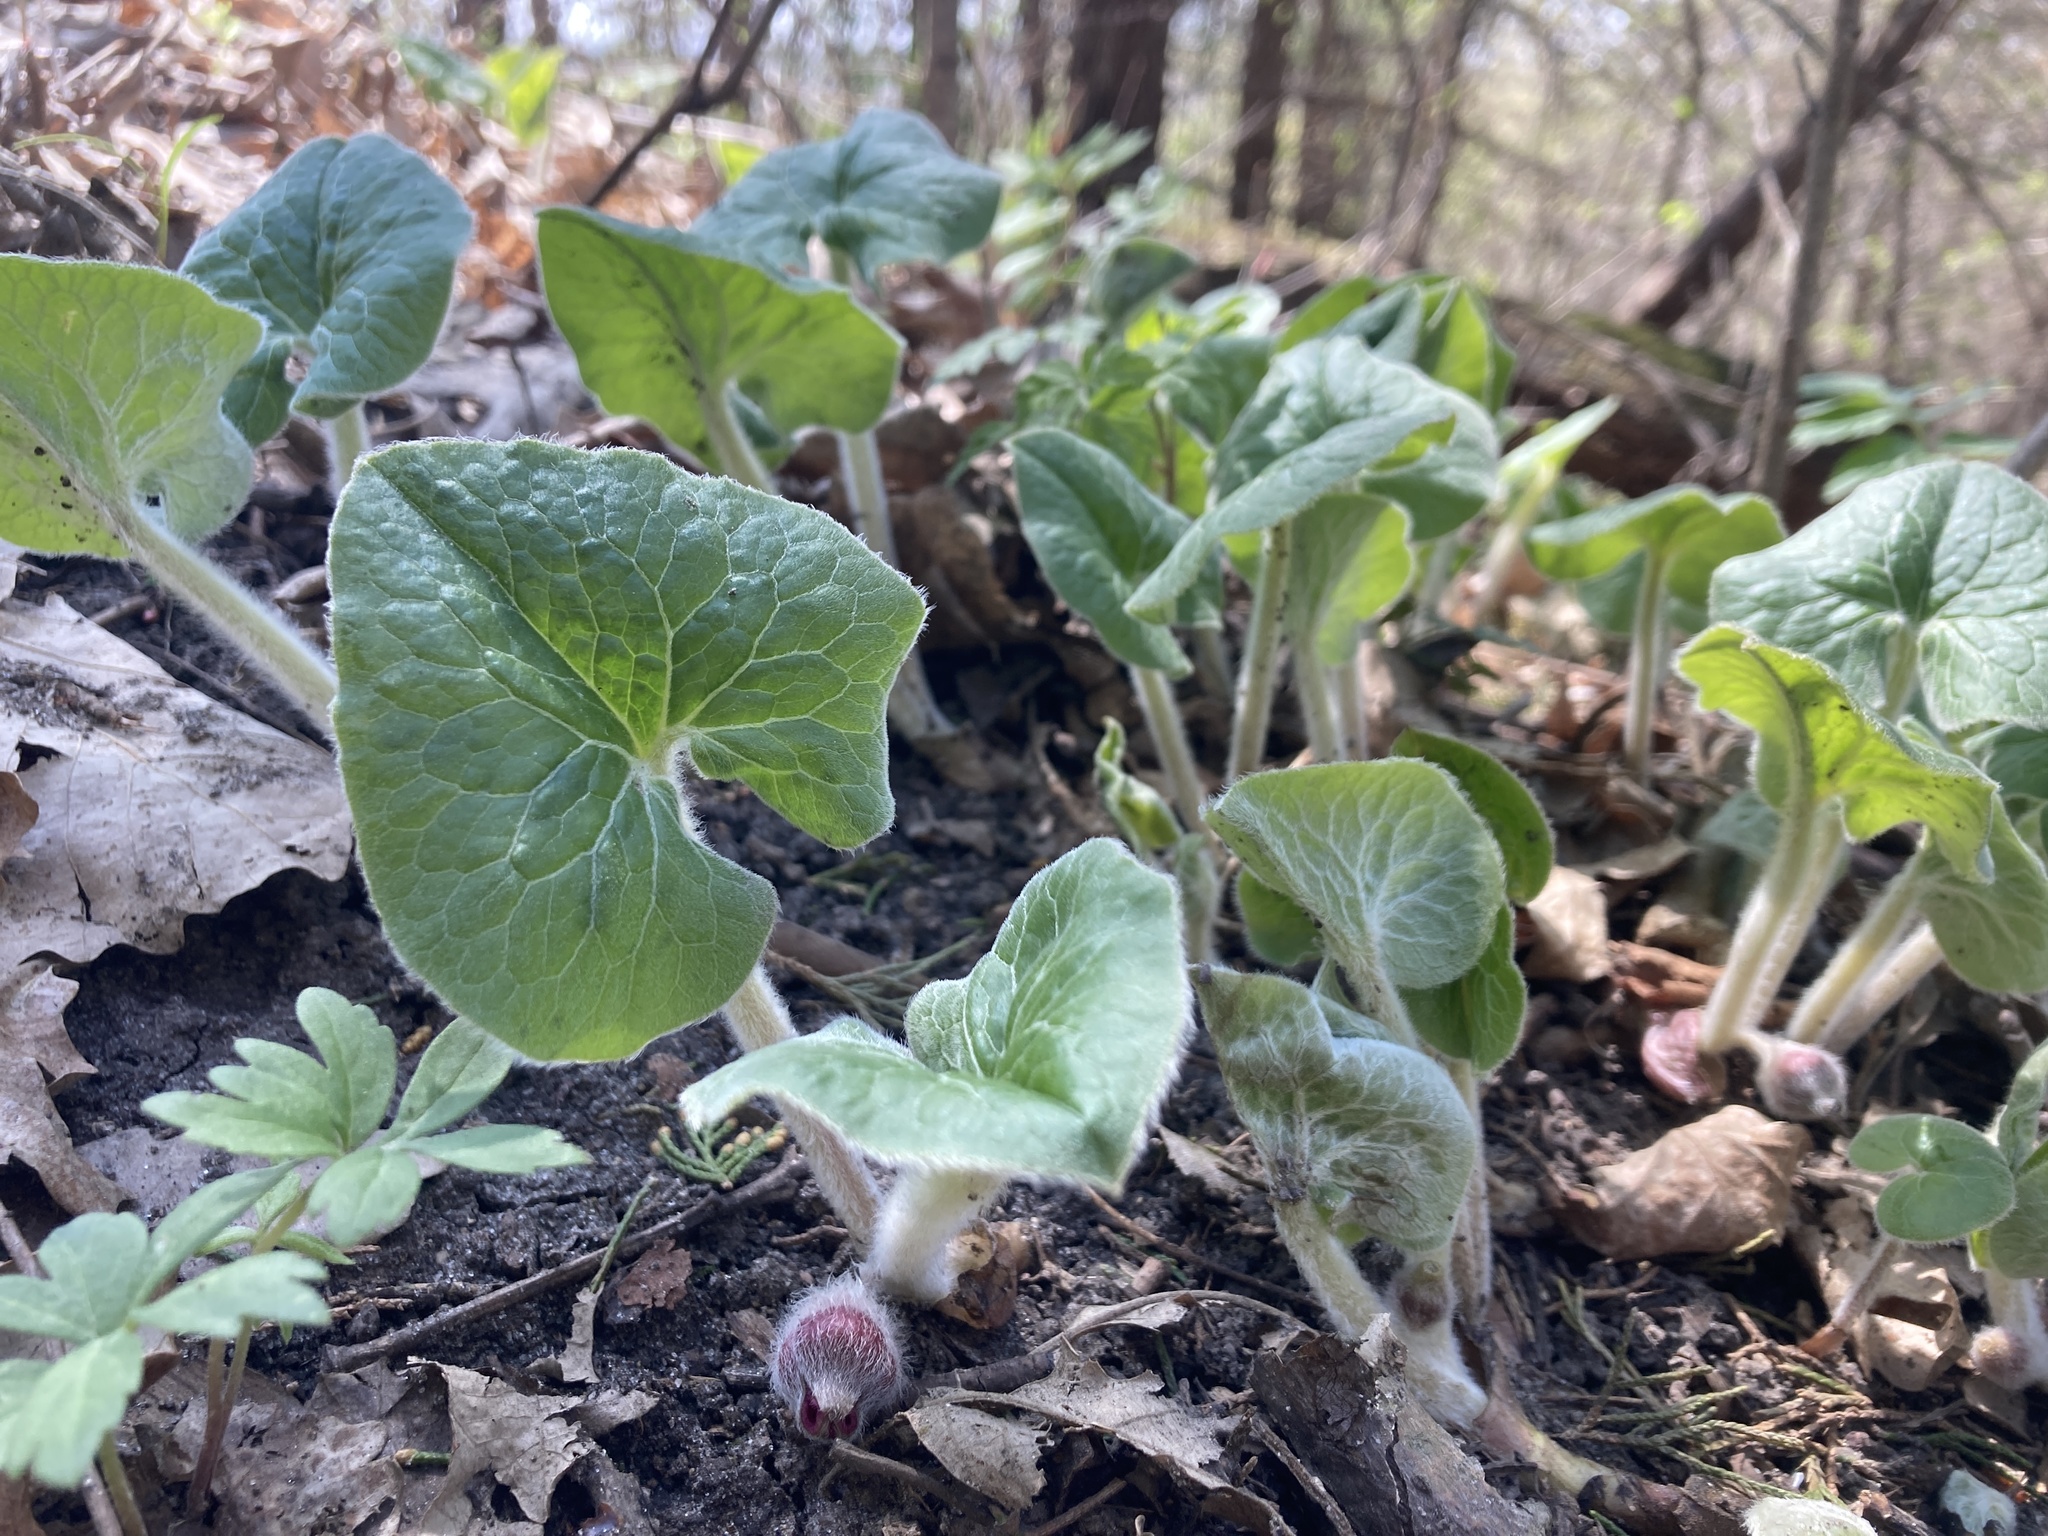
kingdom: Plantae
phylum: Tracheophyta
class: Magnoliopsida
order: Piperales
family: Aristolochiaceae
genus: Asarum
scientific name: Asarum canadense
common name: Wild ginger
